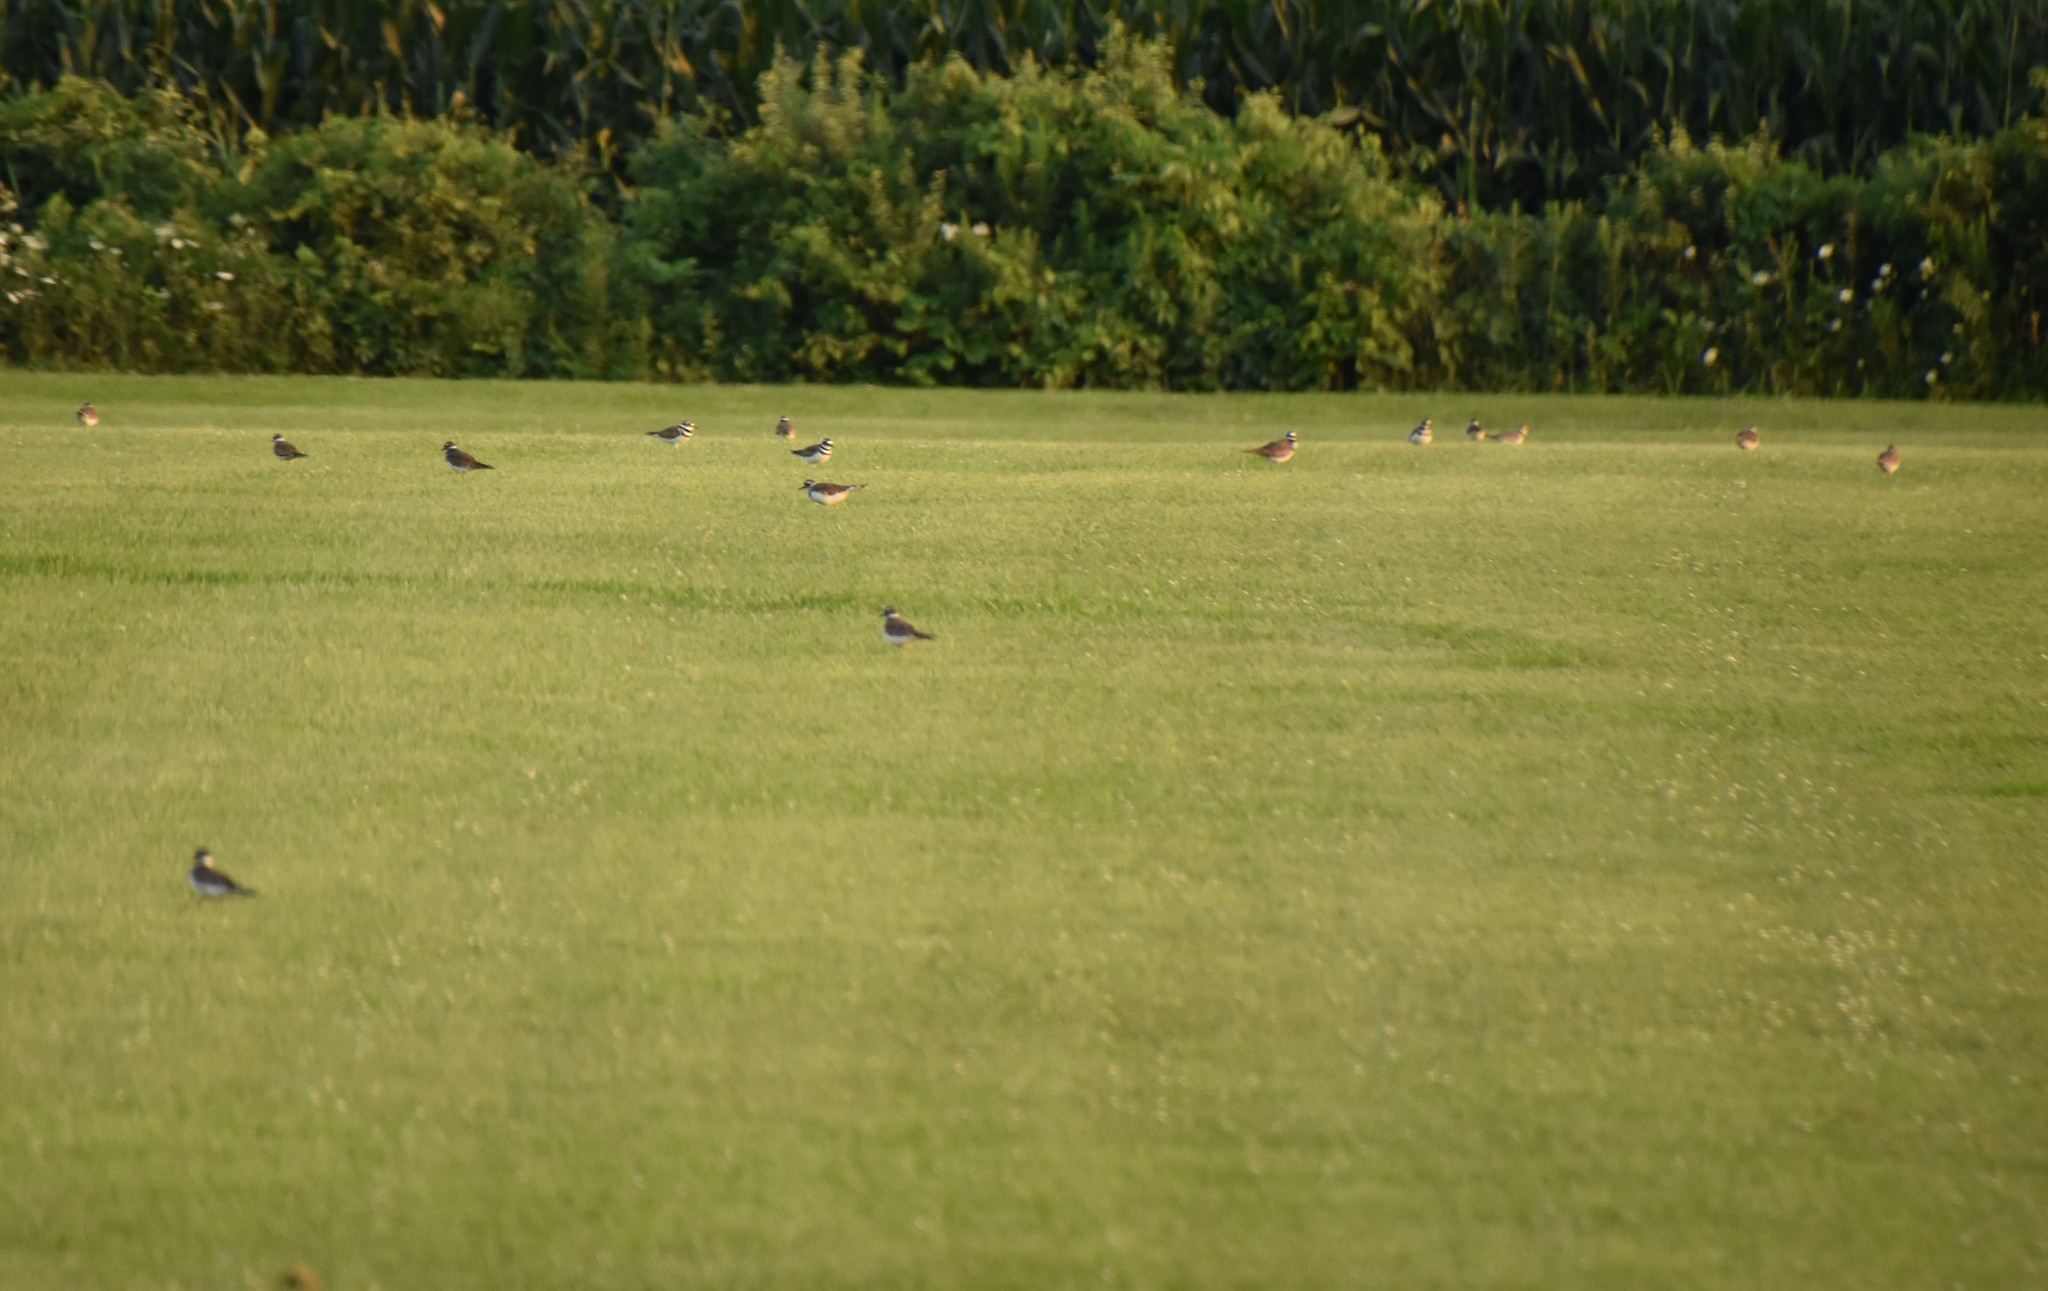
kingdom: Animalia
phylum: Chordata
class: Aves
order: Charadriiformes
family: Charadriidae
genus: Charadrius
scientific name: Charadrius vociferus
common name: Killdeer
